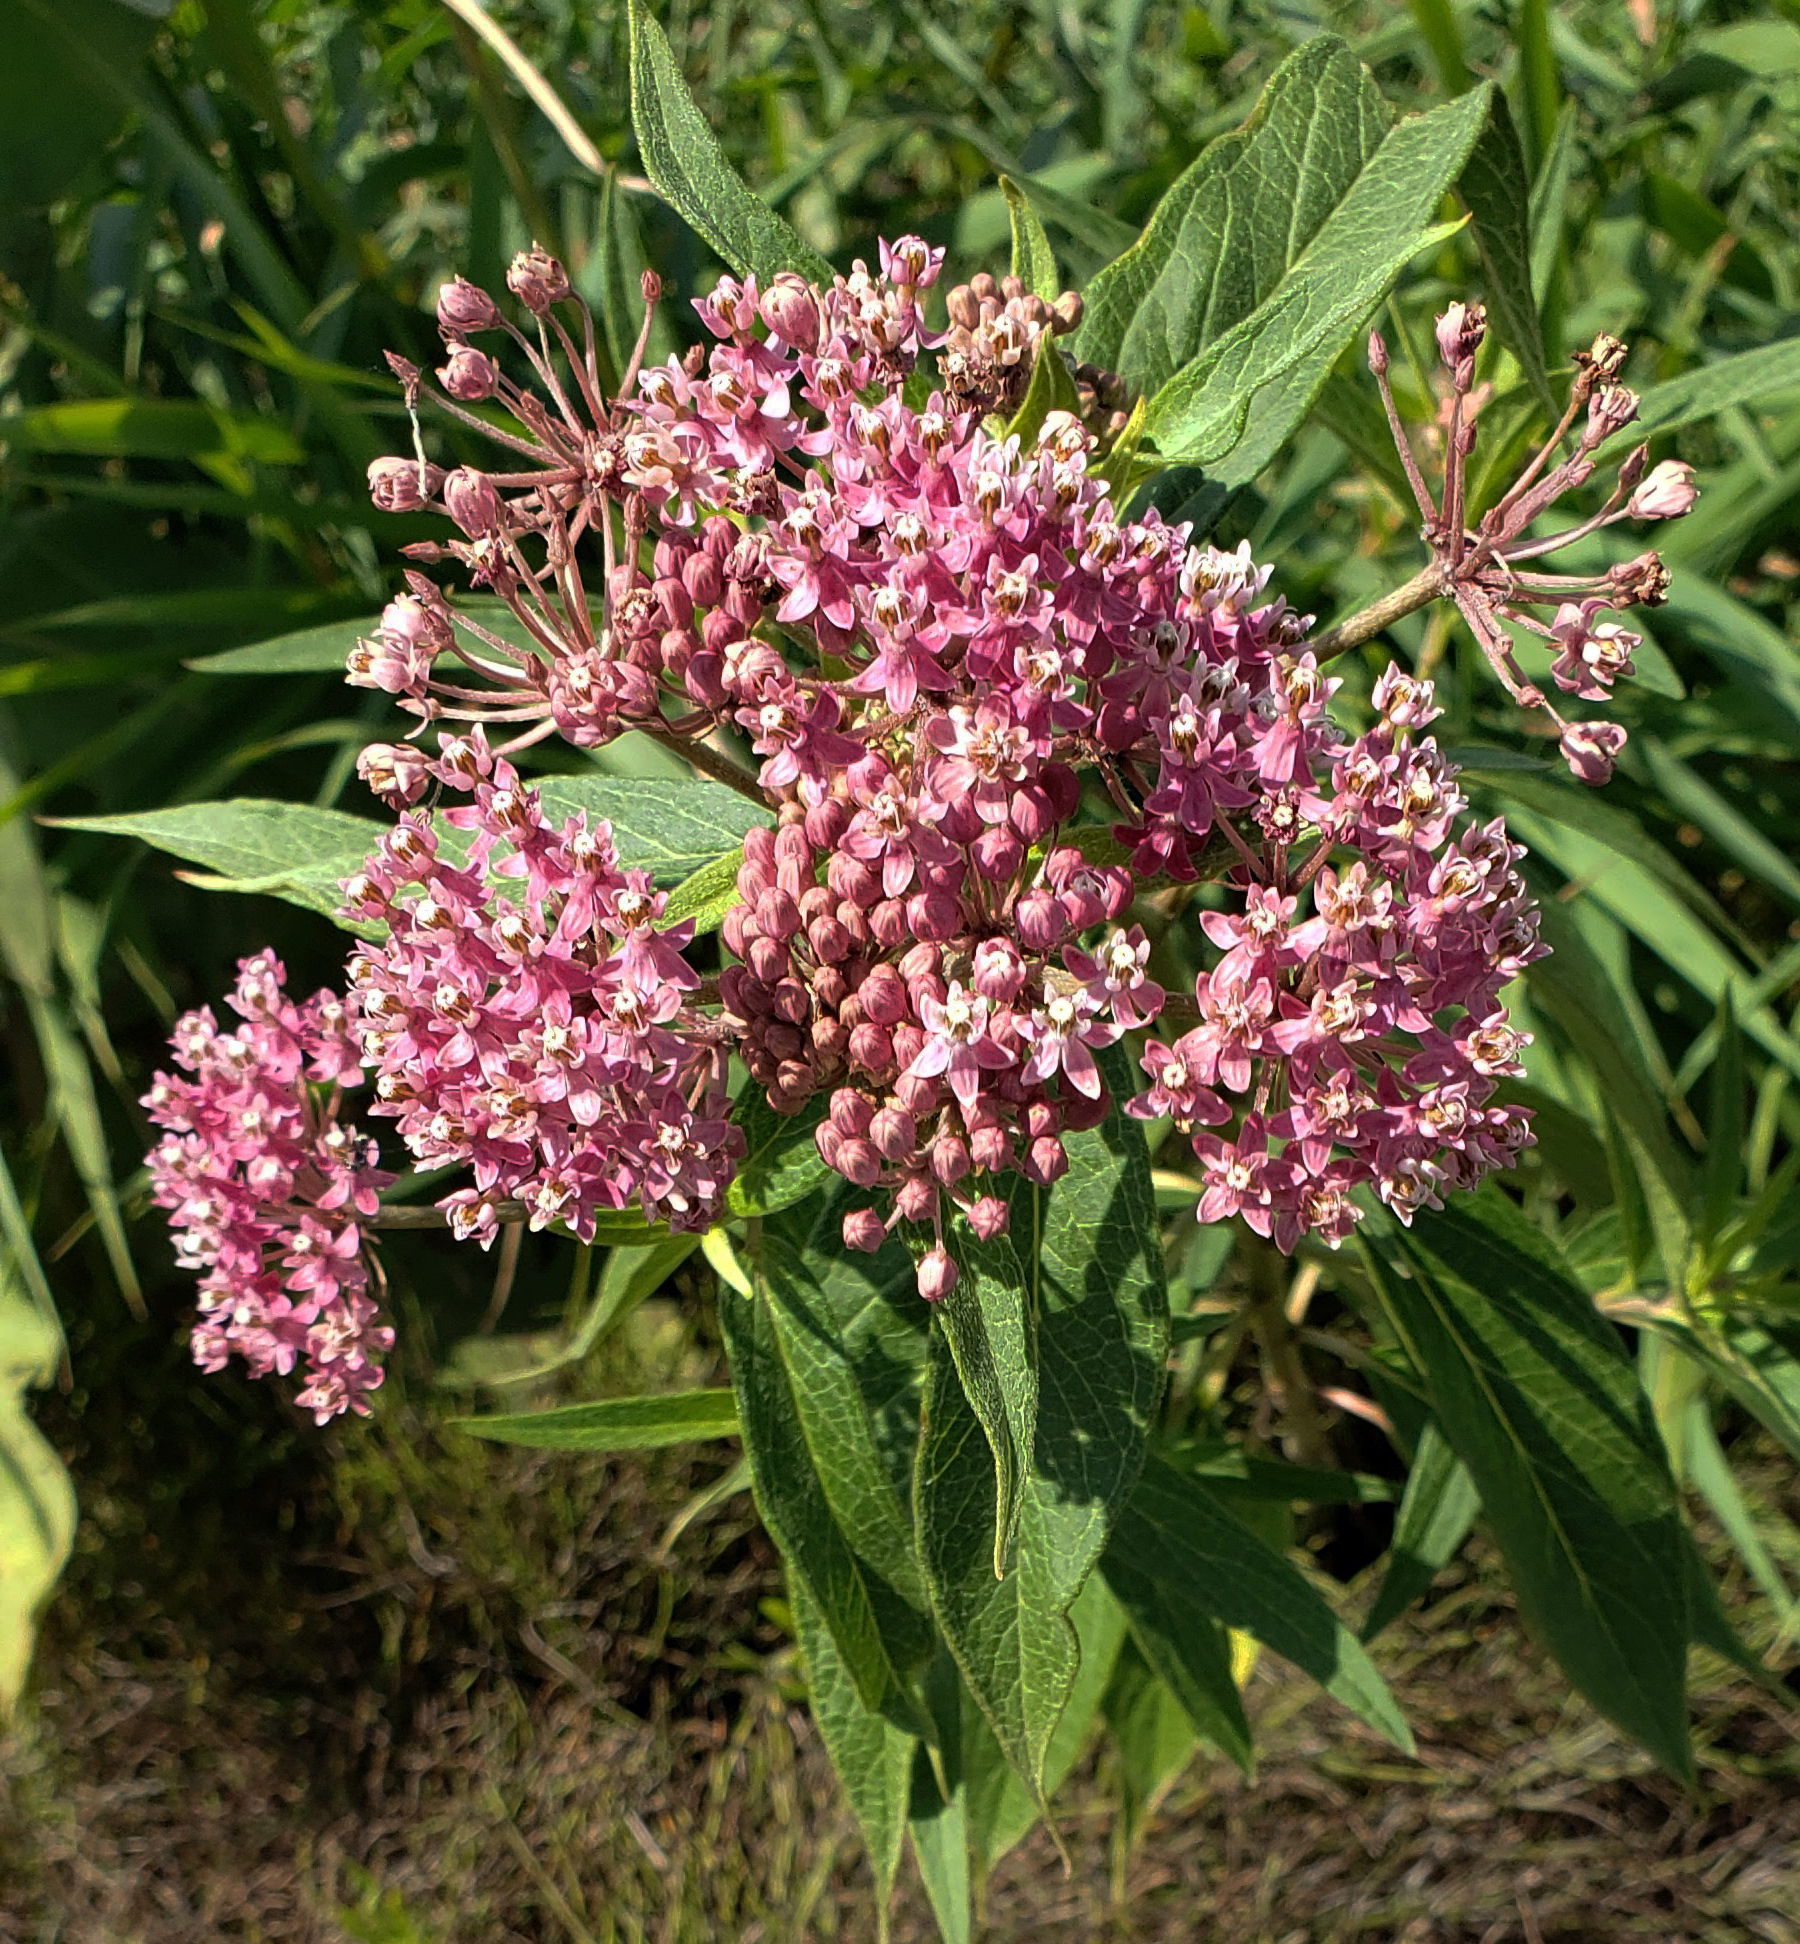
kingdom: Plantae
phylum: Tracheophyta
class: Magnoliopsida
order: Gentianales
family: Apocynaceae
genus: Asclepias
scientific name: Asclepias incarnata
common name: Swamp milkweed
